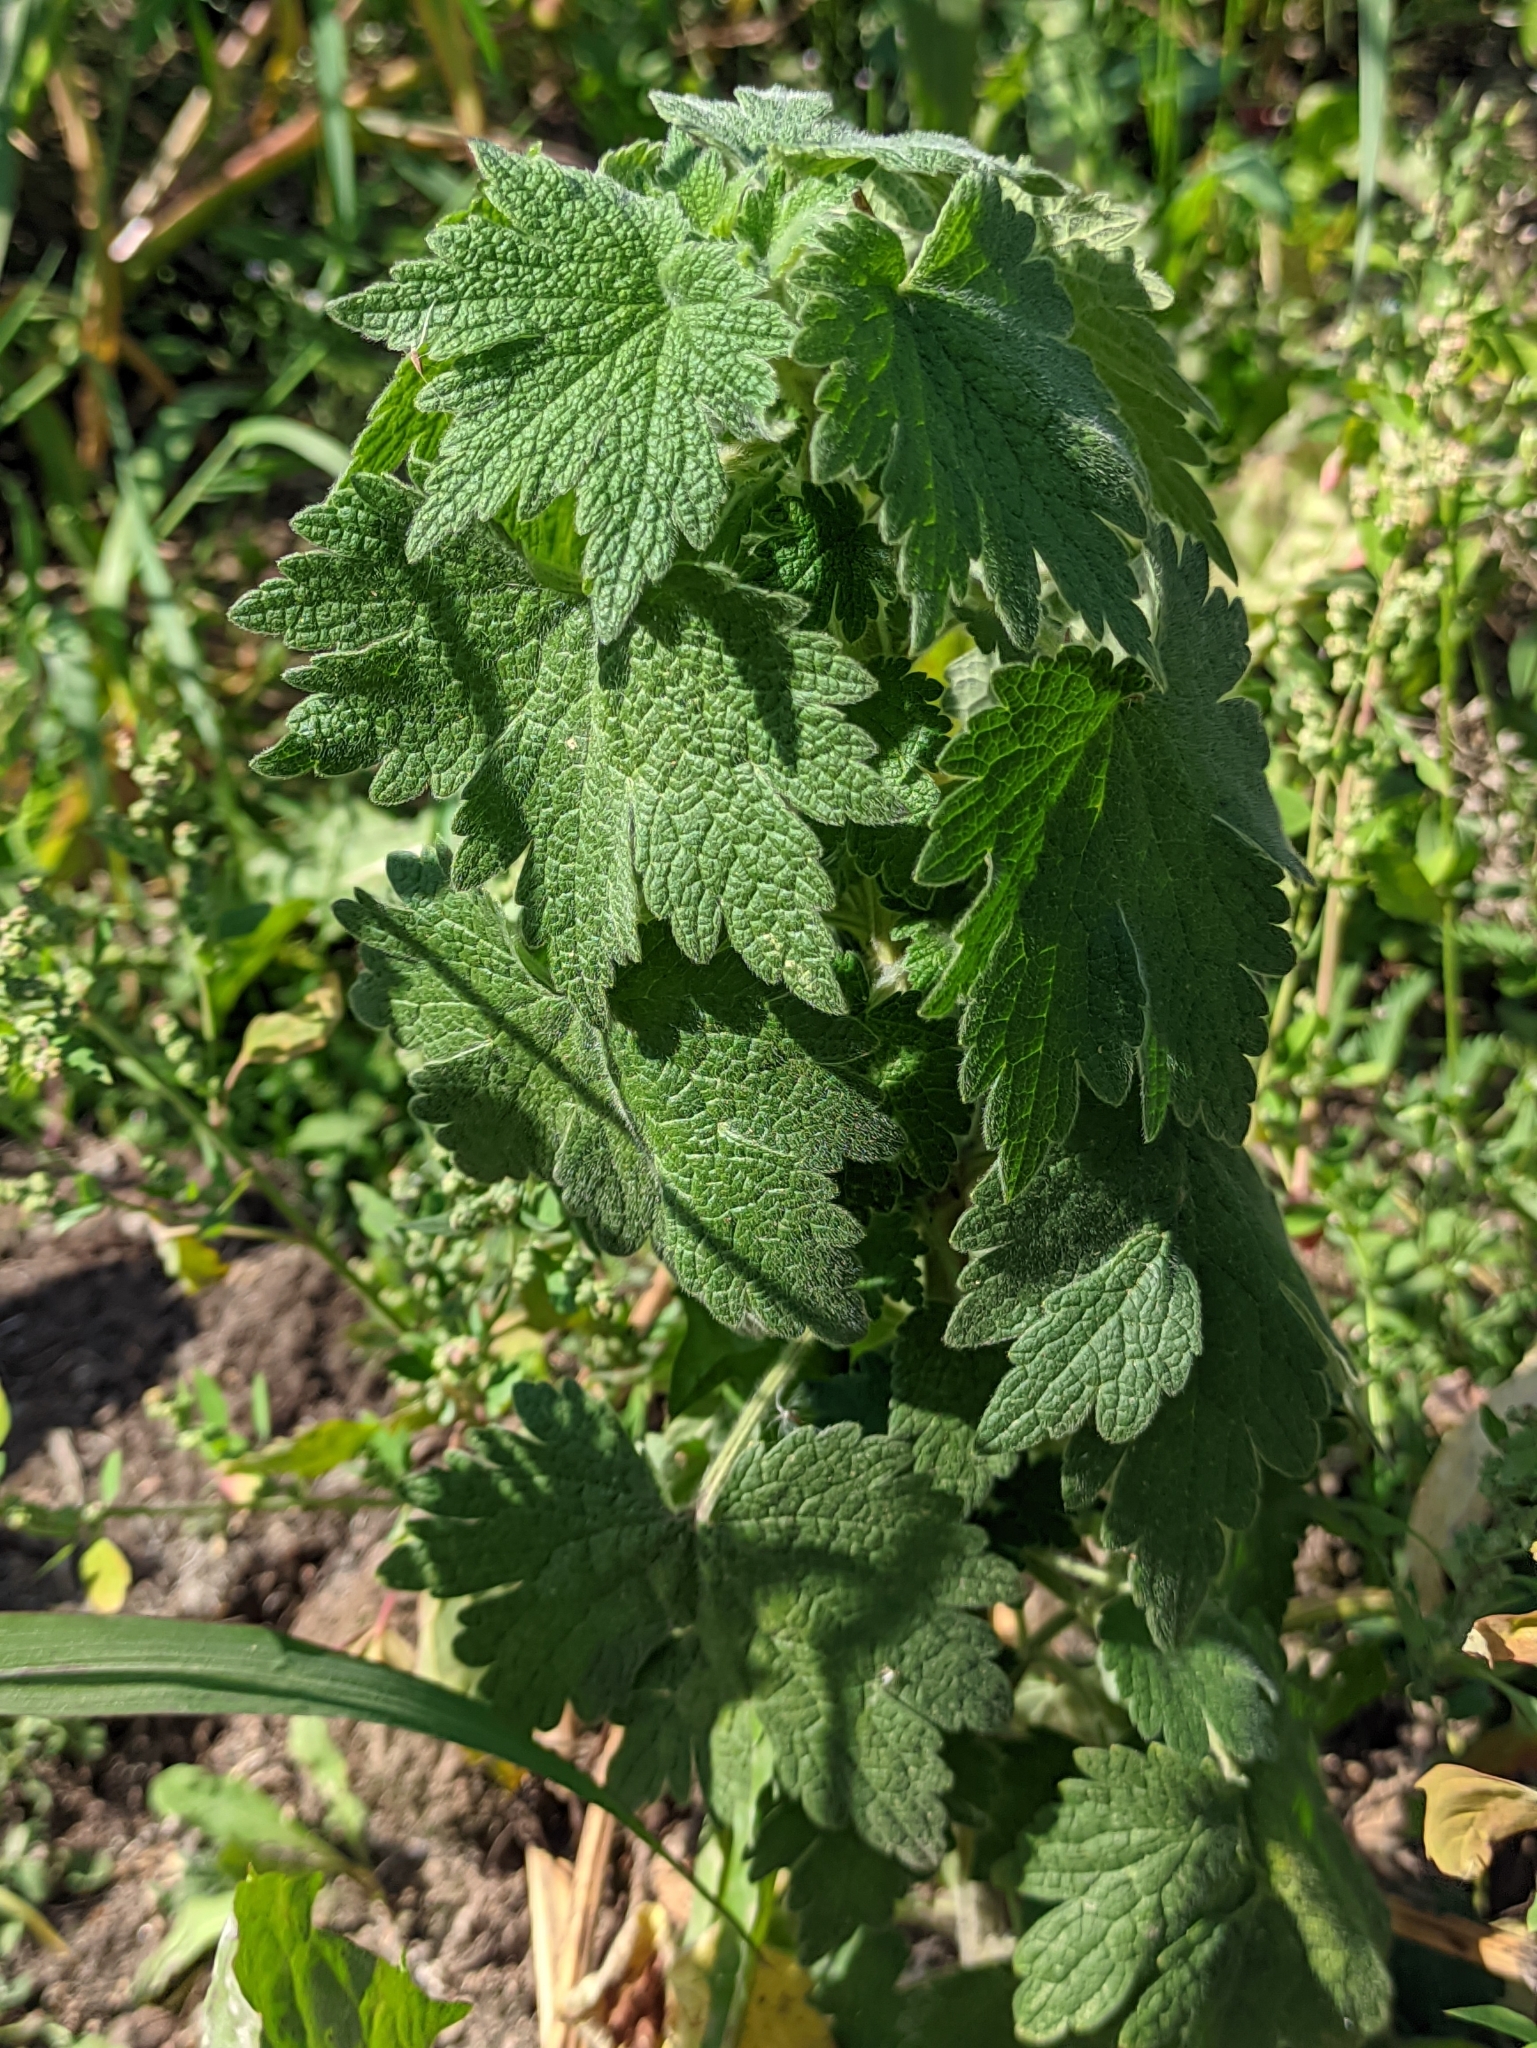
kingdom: Plantae
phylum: Tracheophyta
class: Magnoliopsida
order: Lamiales
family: Lamiaceae
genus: Leonurus
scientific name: Leonurus quinquelobatus
